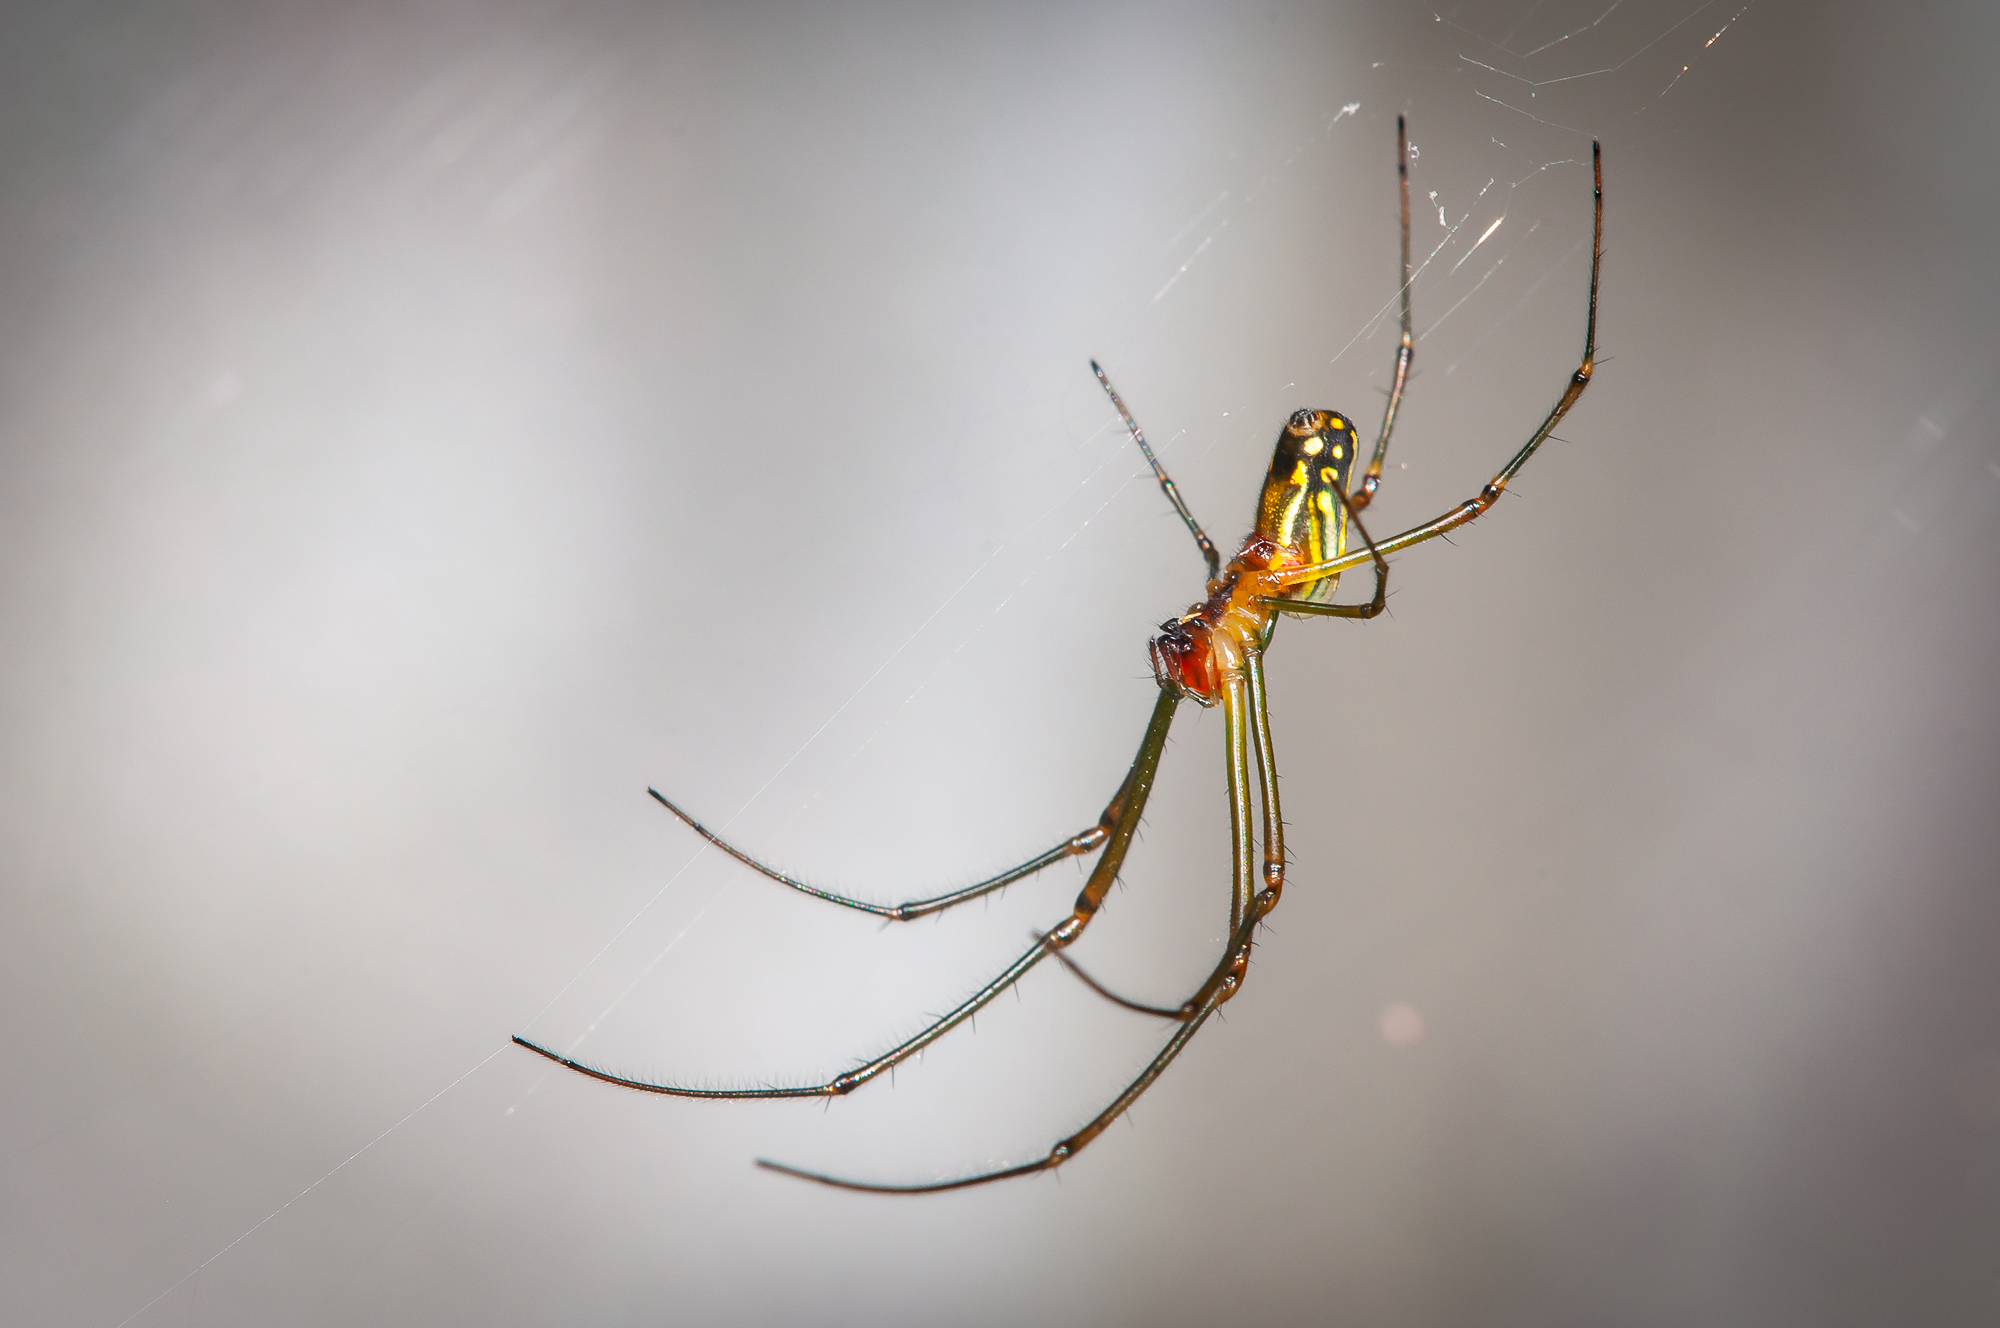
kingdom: Animalia
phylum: Arthropoda
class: Arachnida
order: Araneae
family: Tetragnathidae
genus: Leucauge
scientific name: Leucauge argyra
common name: Longjawed orb weavers
